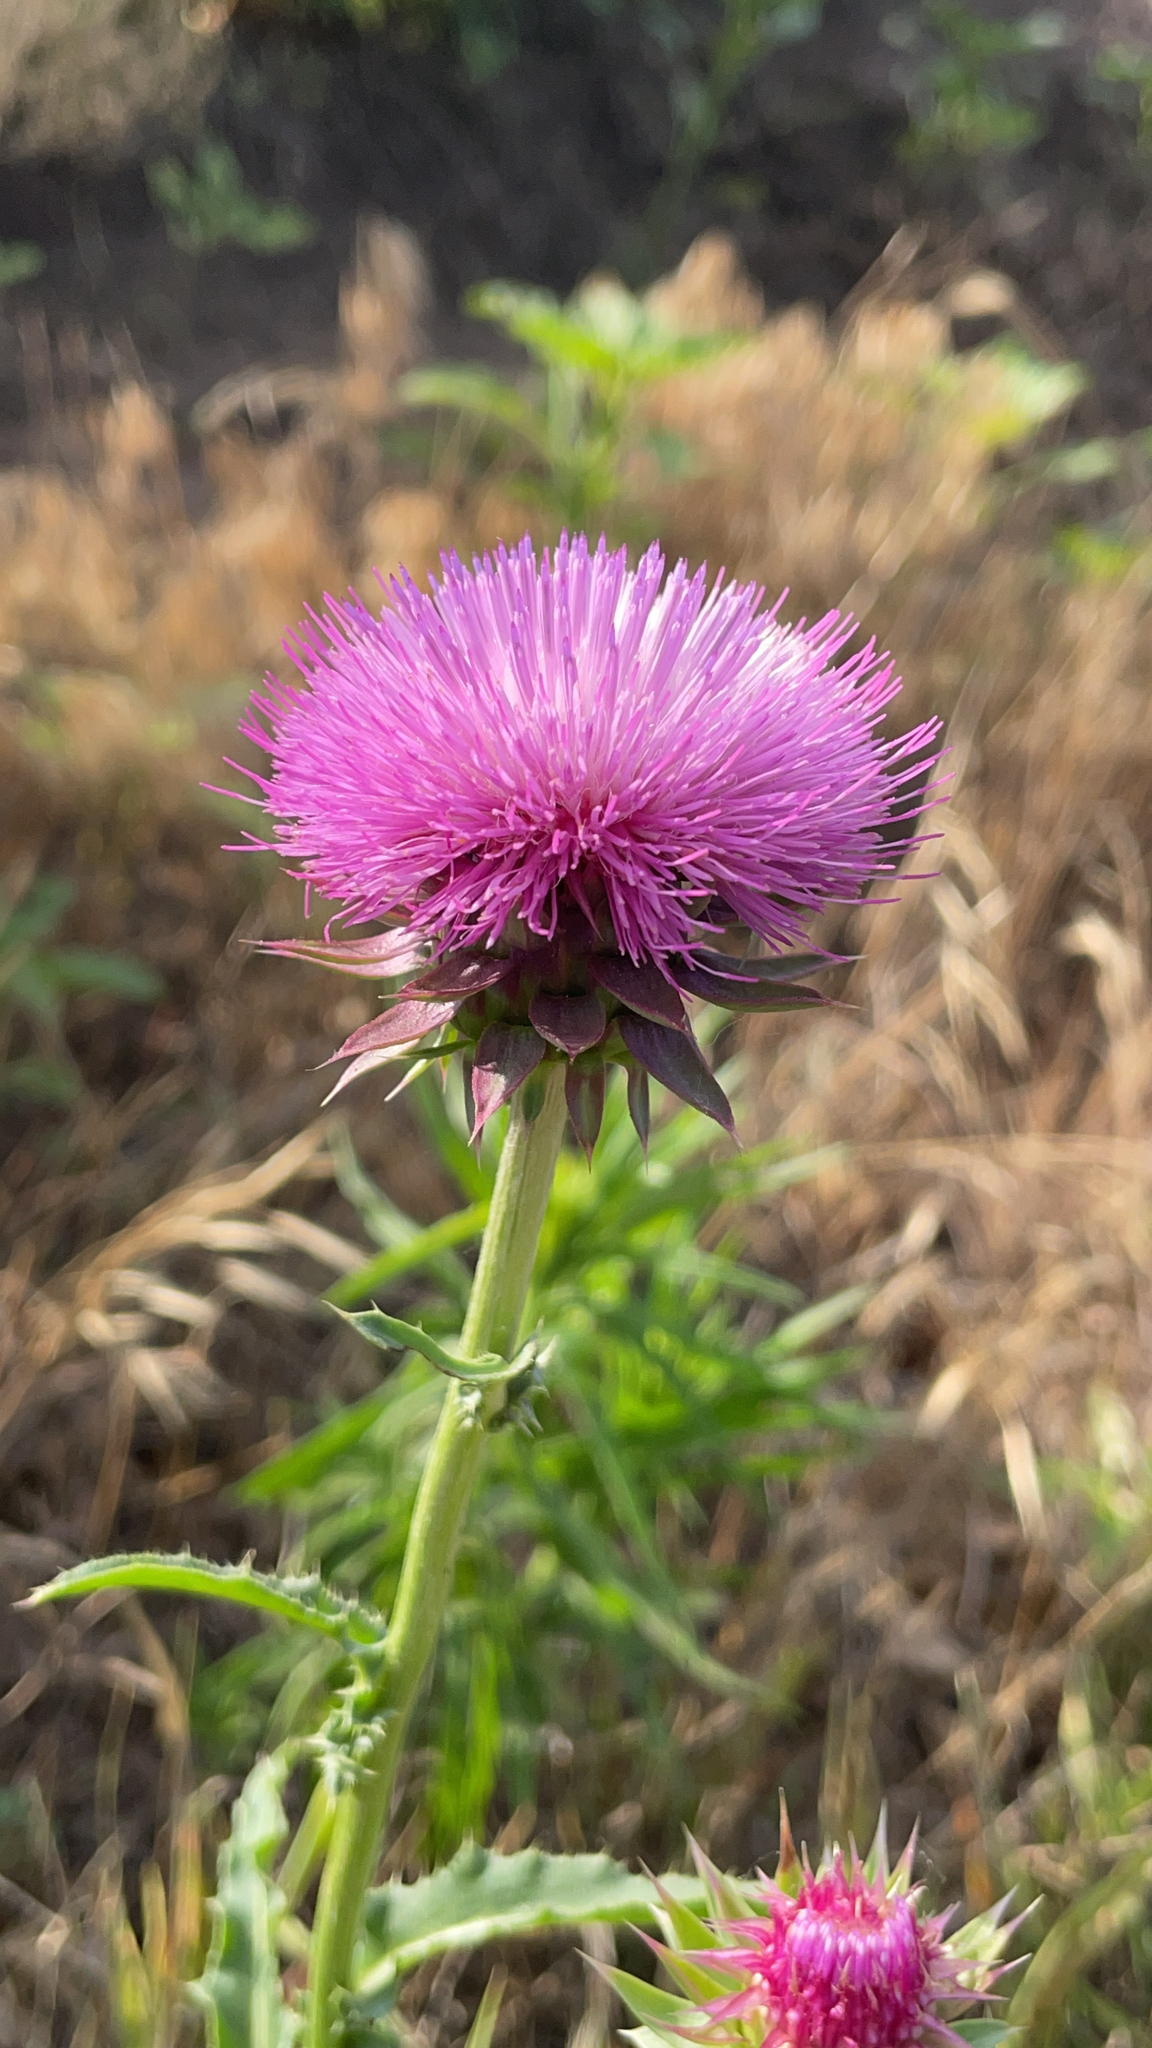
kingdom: Plantae
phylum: Tracheophyta
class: Magnoliopsida
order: Asterales
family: Asteraceae
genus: Carduus
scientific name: Carduus nutans
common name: Musk thistle
